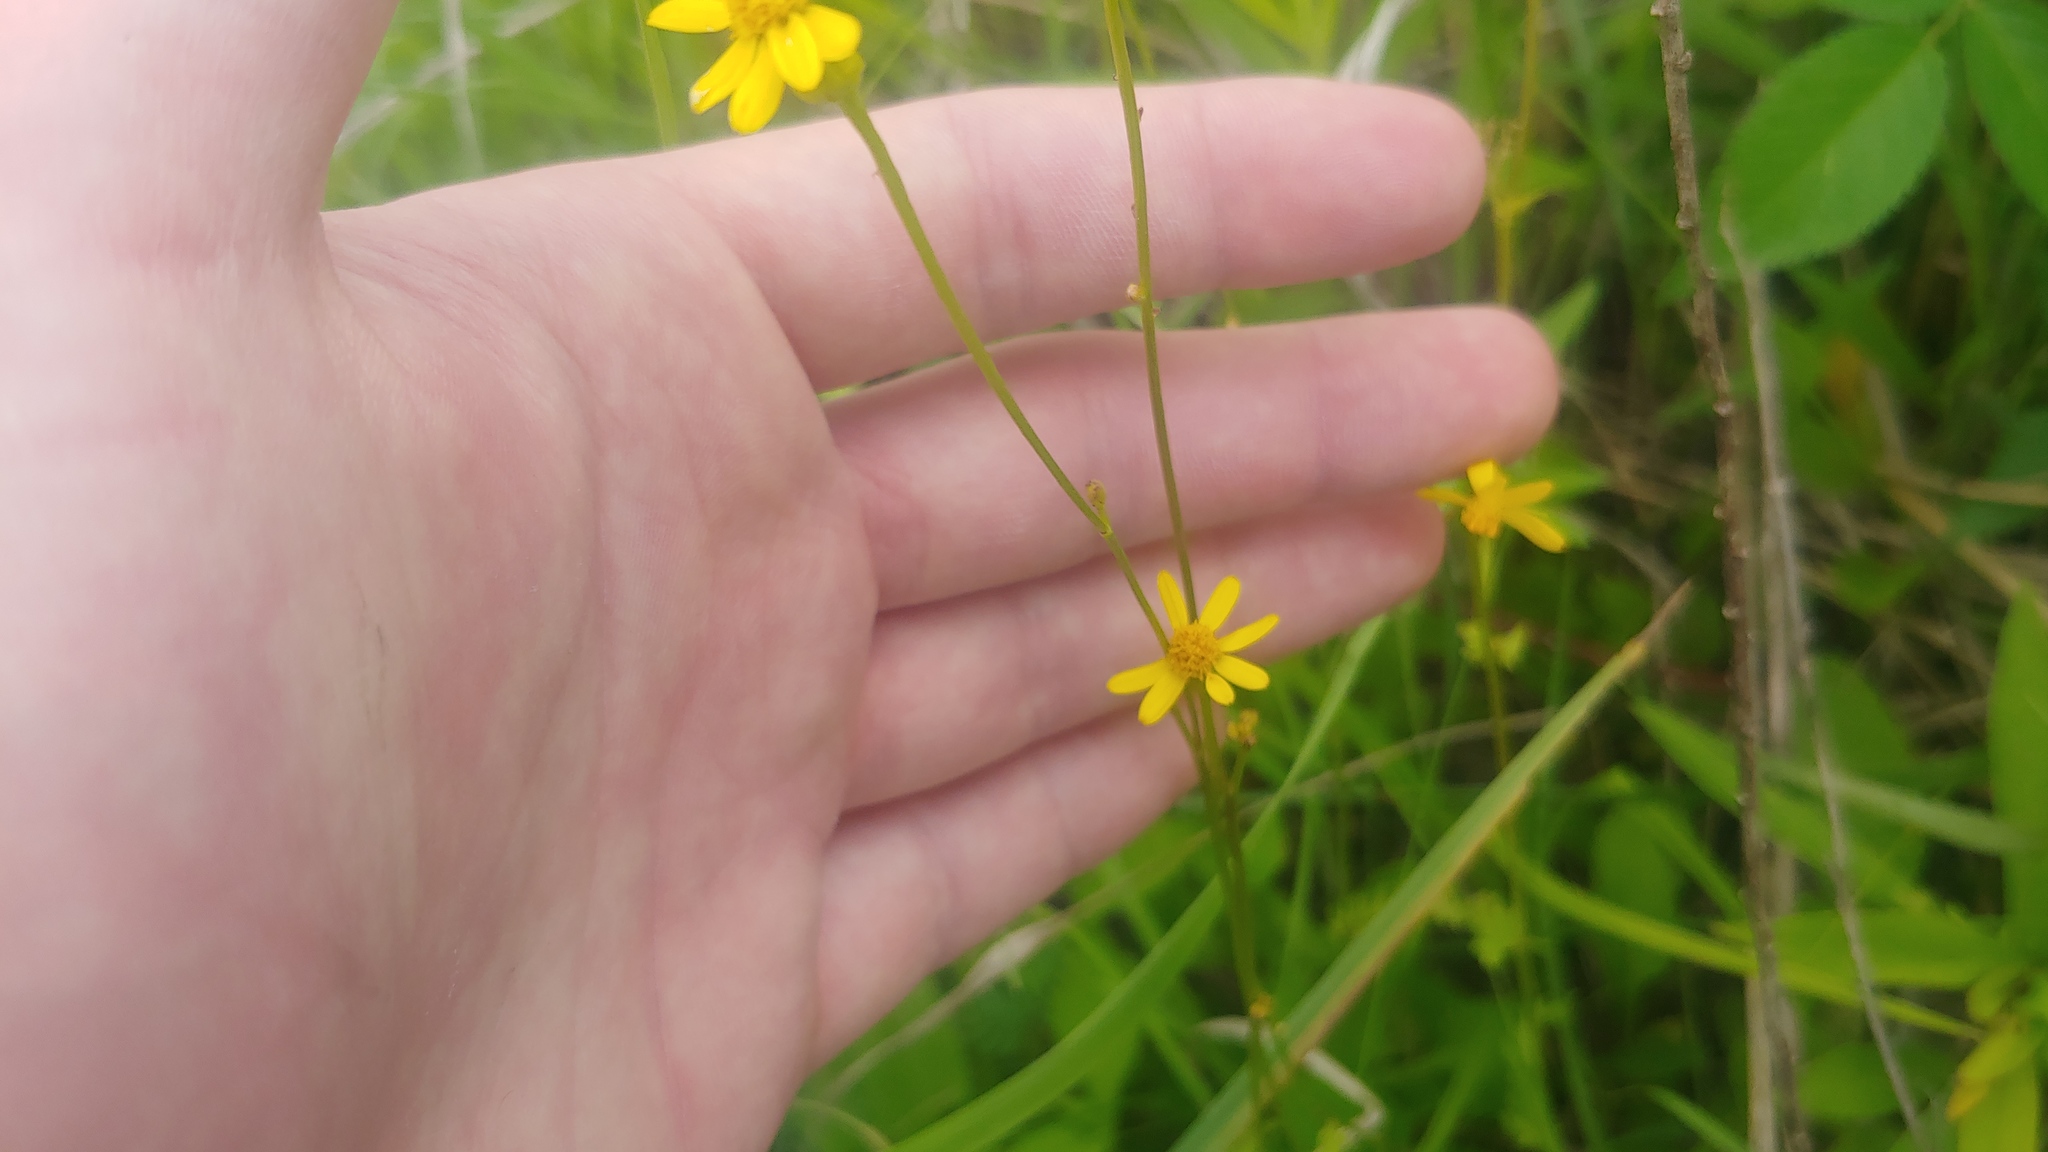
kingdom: Plantae
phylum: Tracheophyta
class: Magnoliopsida
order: Asterales
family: Asteraceae
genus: Packera
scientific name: Packera paupercula
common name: Balsam groundsel
